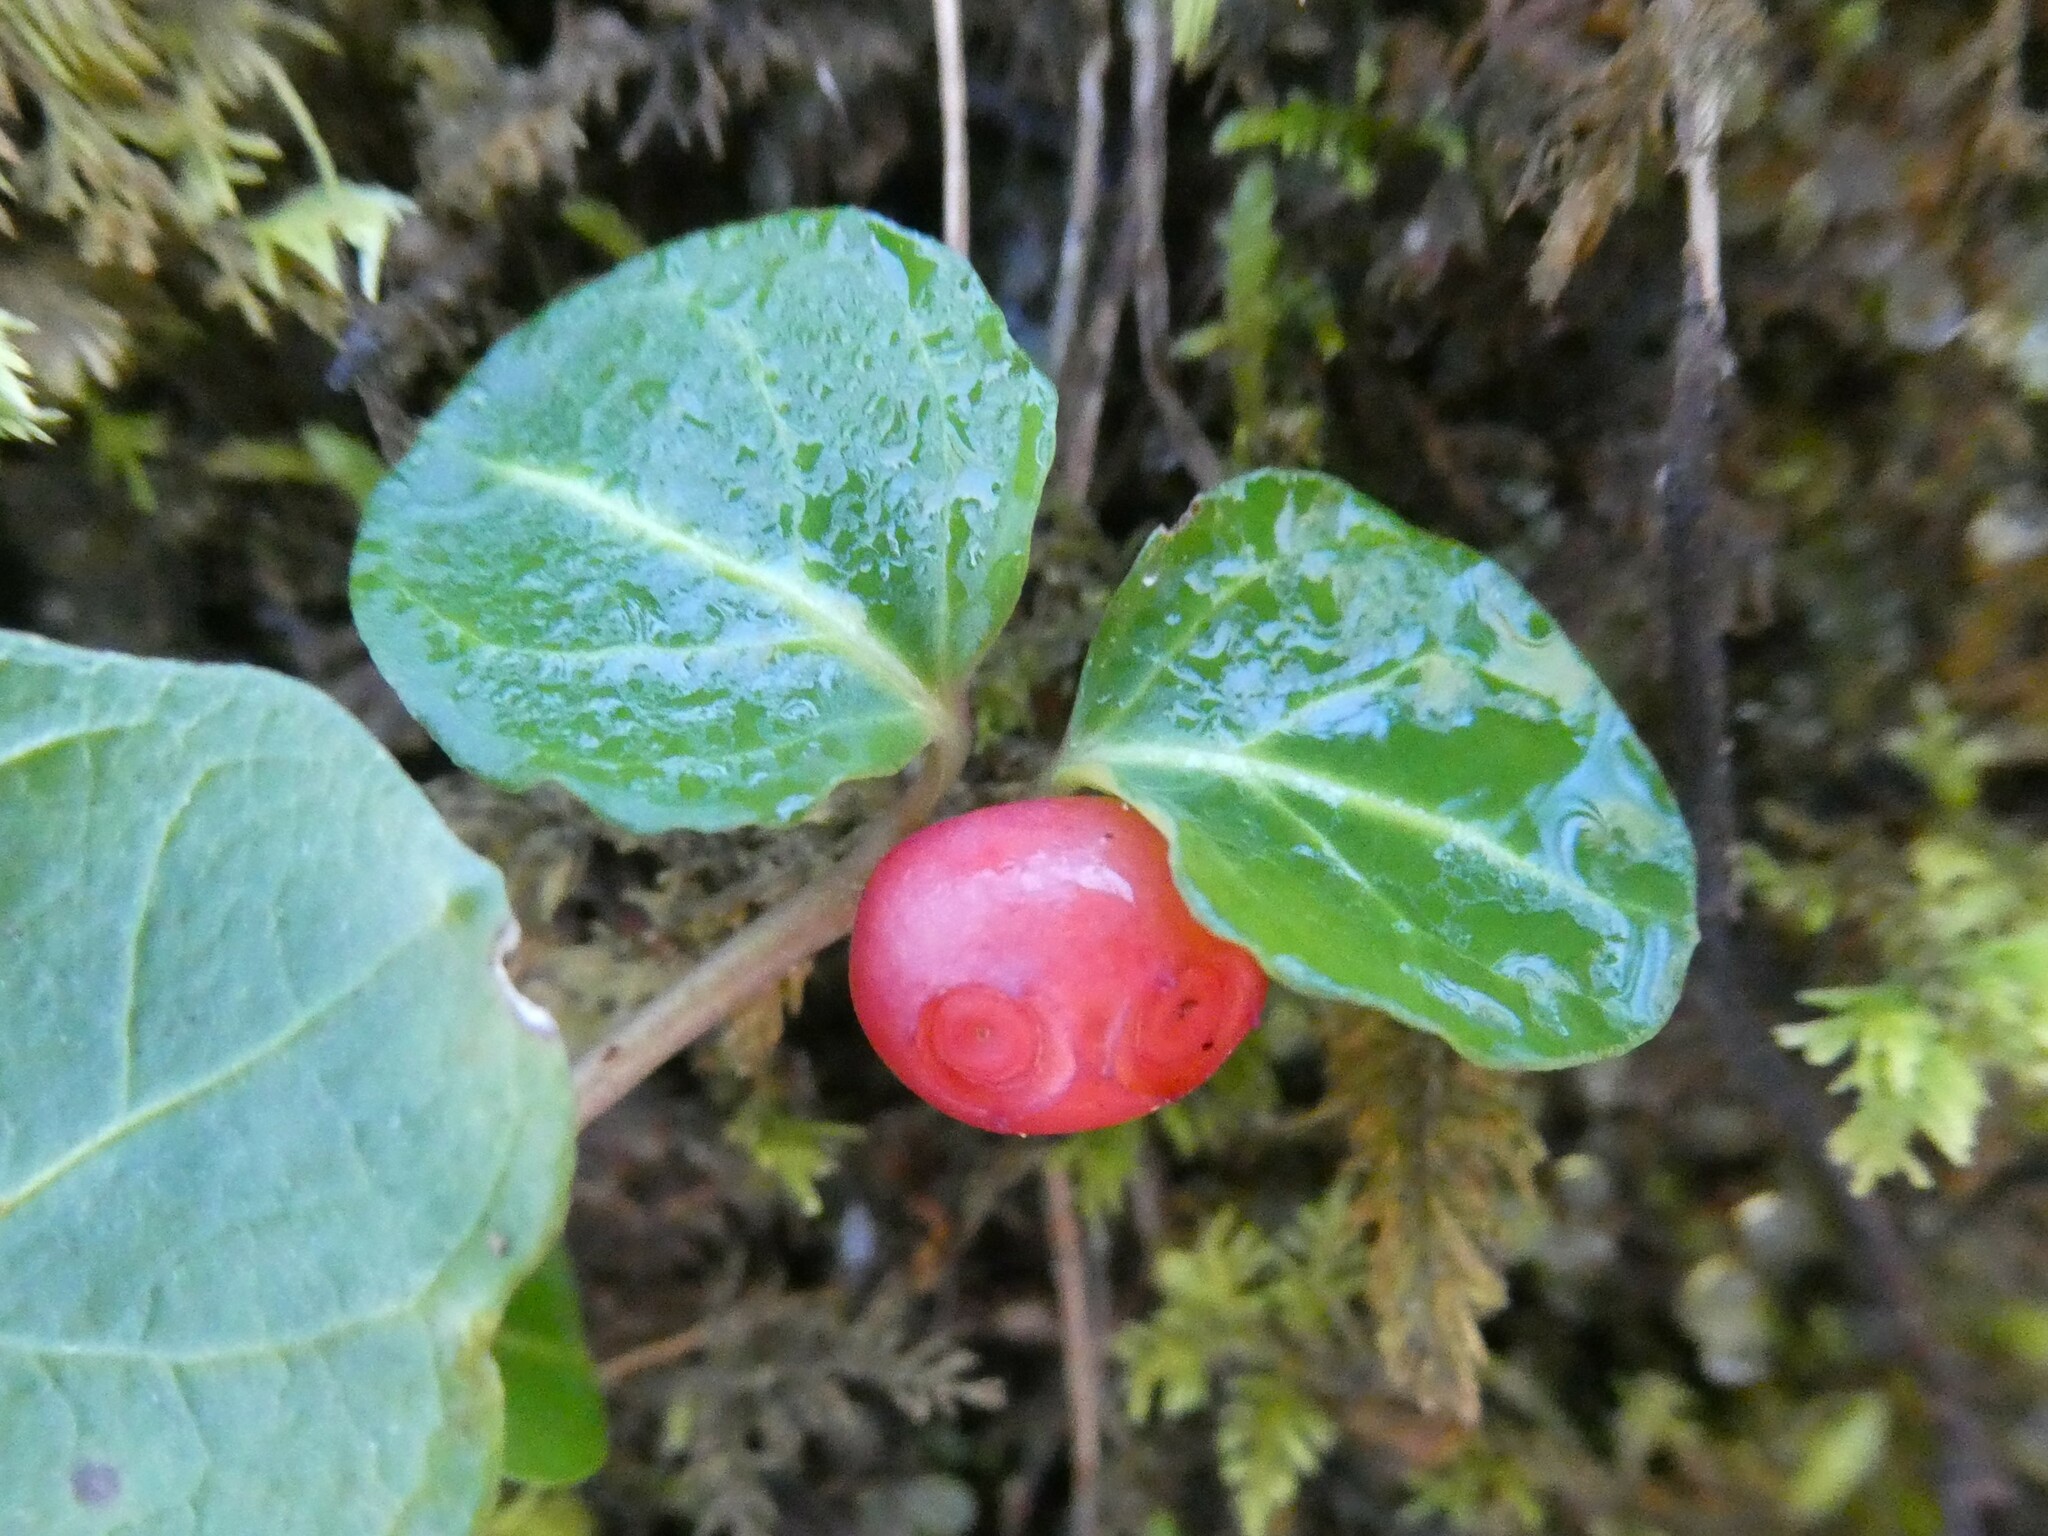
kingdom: Plantae
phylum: Tracheophyta
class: Magnoliopsida
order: Gentianales
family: Rubiaceae
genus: Mitchella
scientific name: Mitchella repens
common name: Partridge-berry
